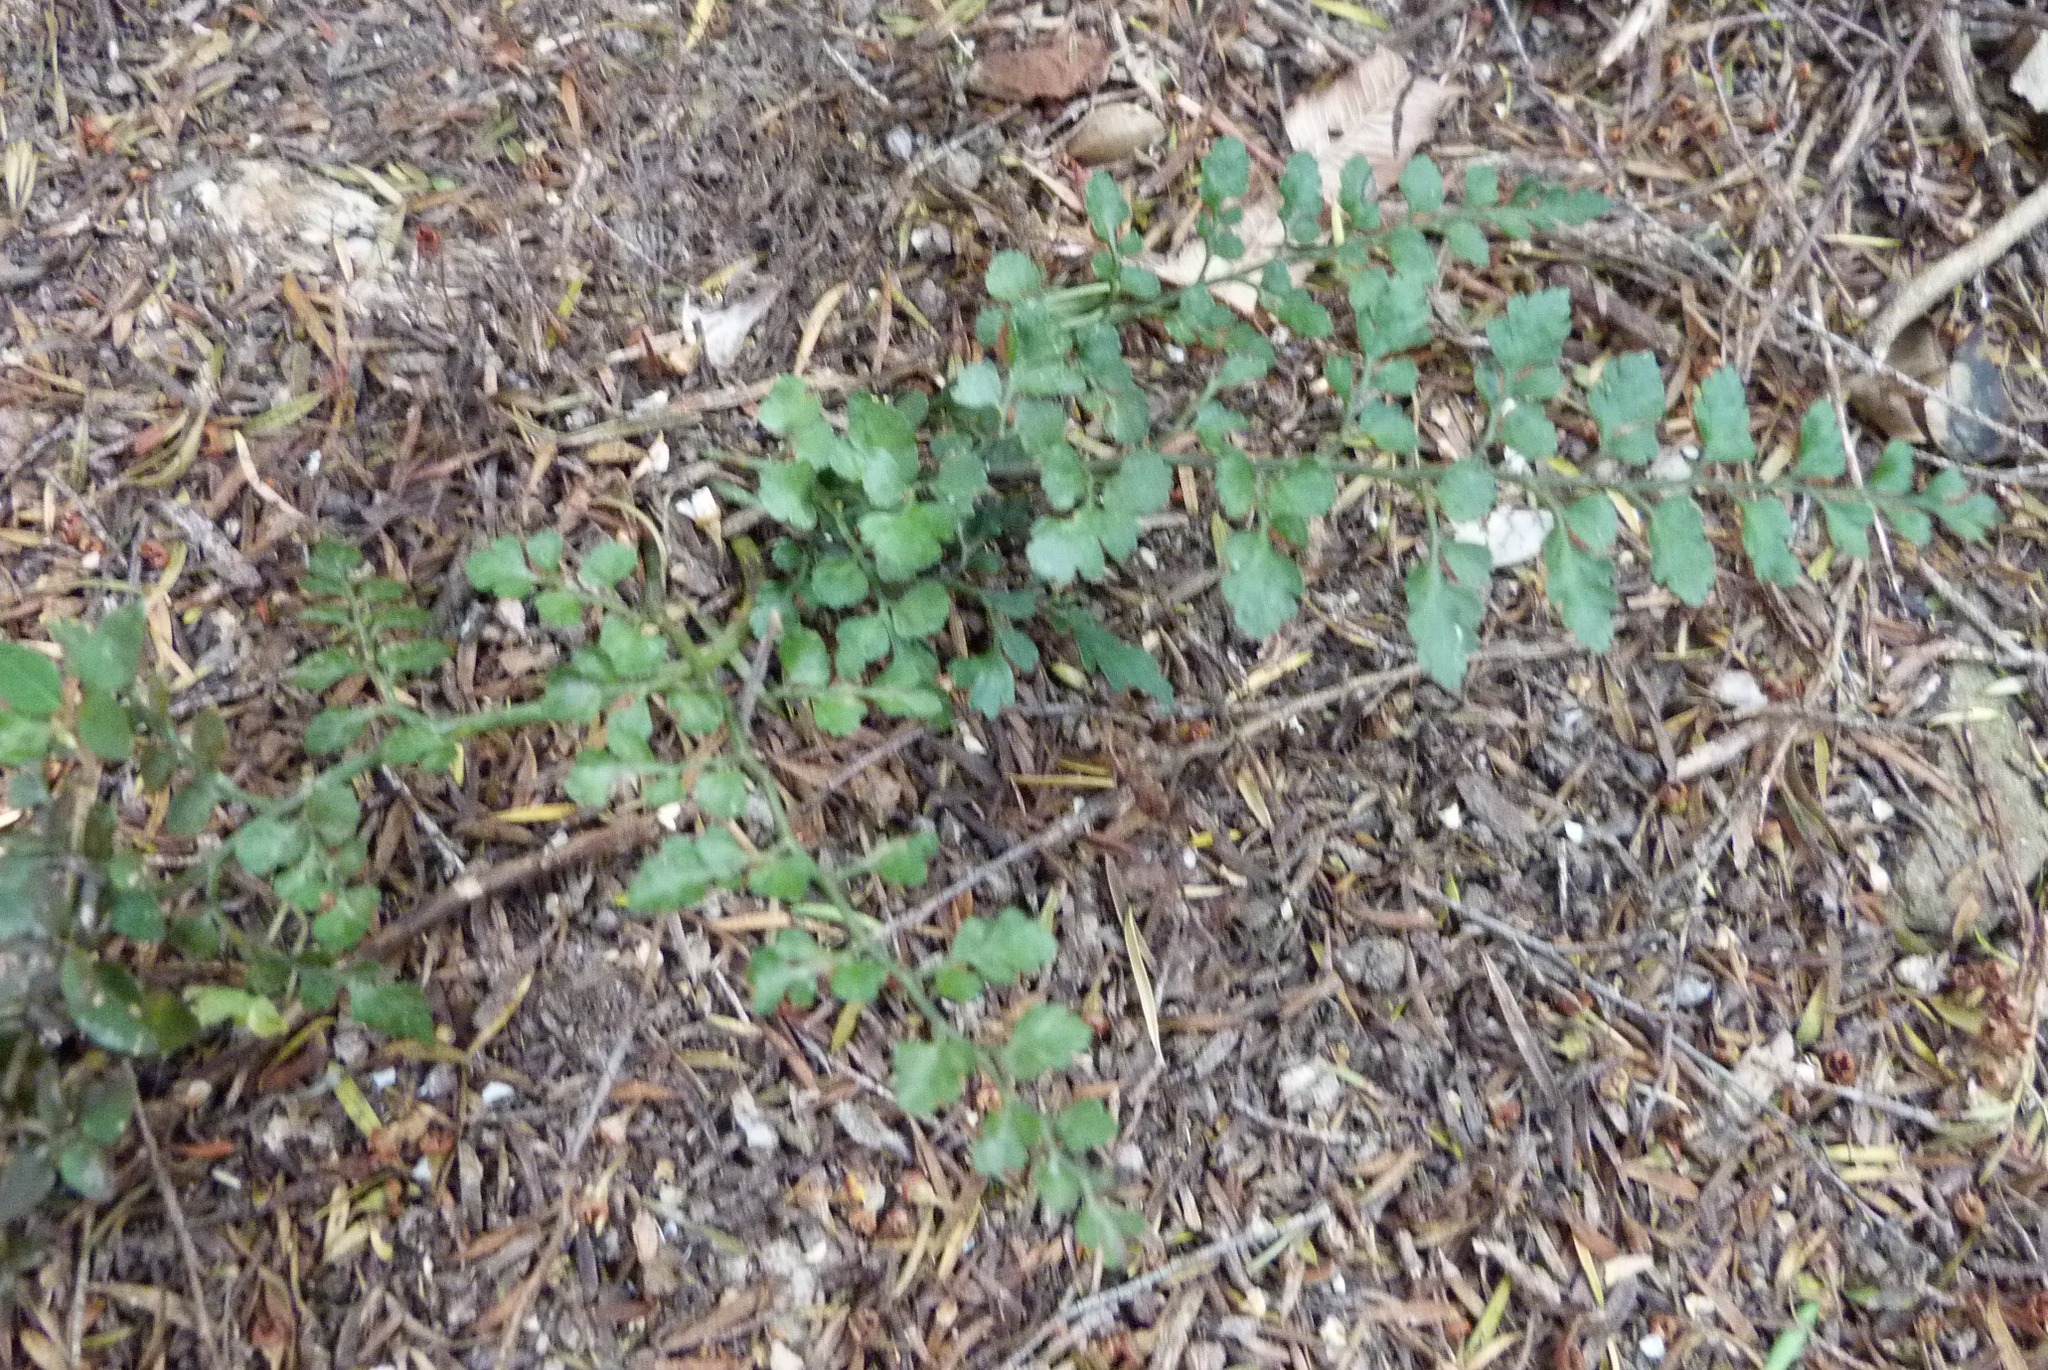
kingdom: Plantae
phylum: Tracheophyta
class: Polypodiopsida
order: Polypodiales
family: Aspleniaceae
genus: Asplenium
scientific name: Asplenium hookerianum
